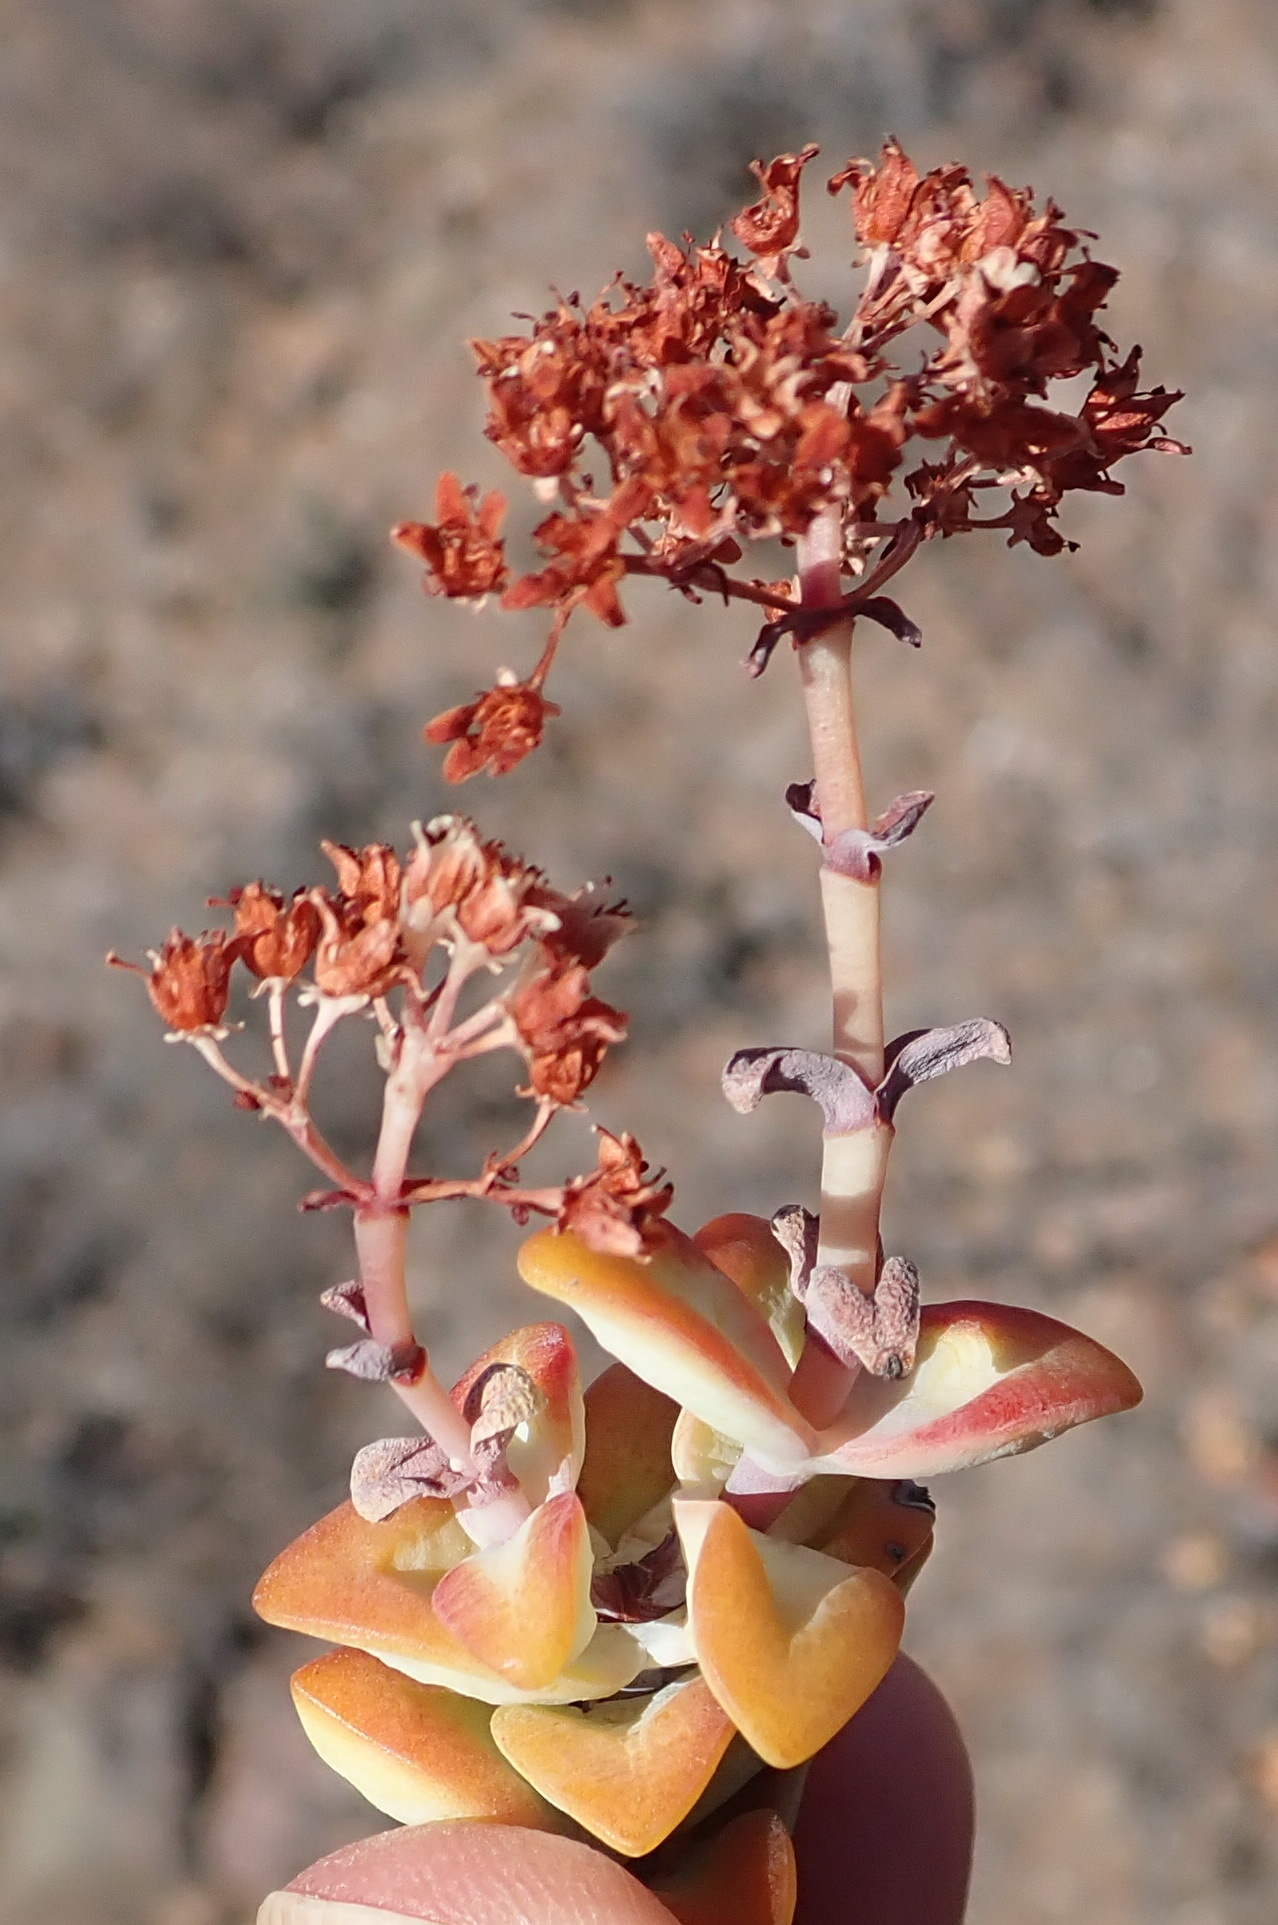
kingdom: Plantae
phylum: Tracheophyta
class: Magnoliopsida
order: Saxifragales
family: Crassulaceae
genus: Crassula
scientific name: Crassula rupestris
